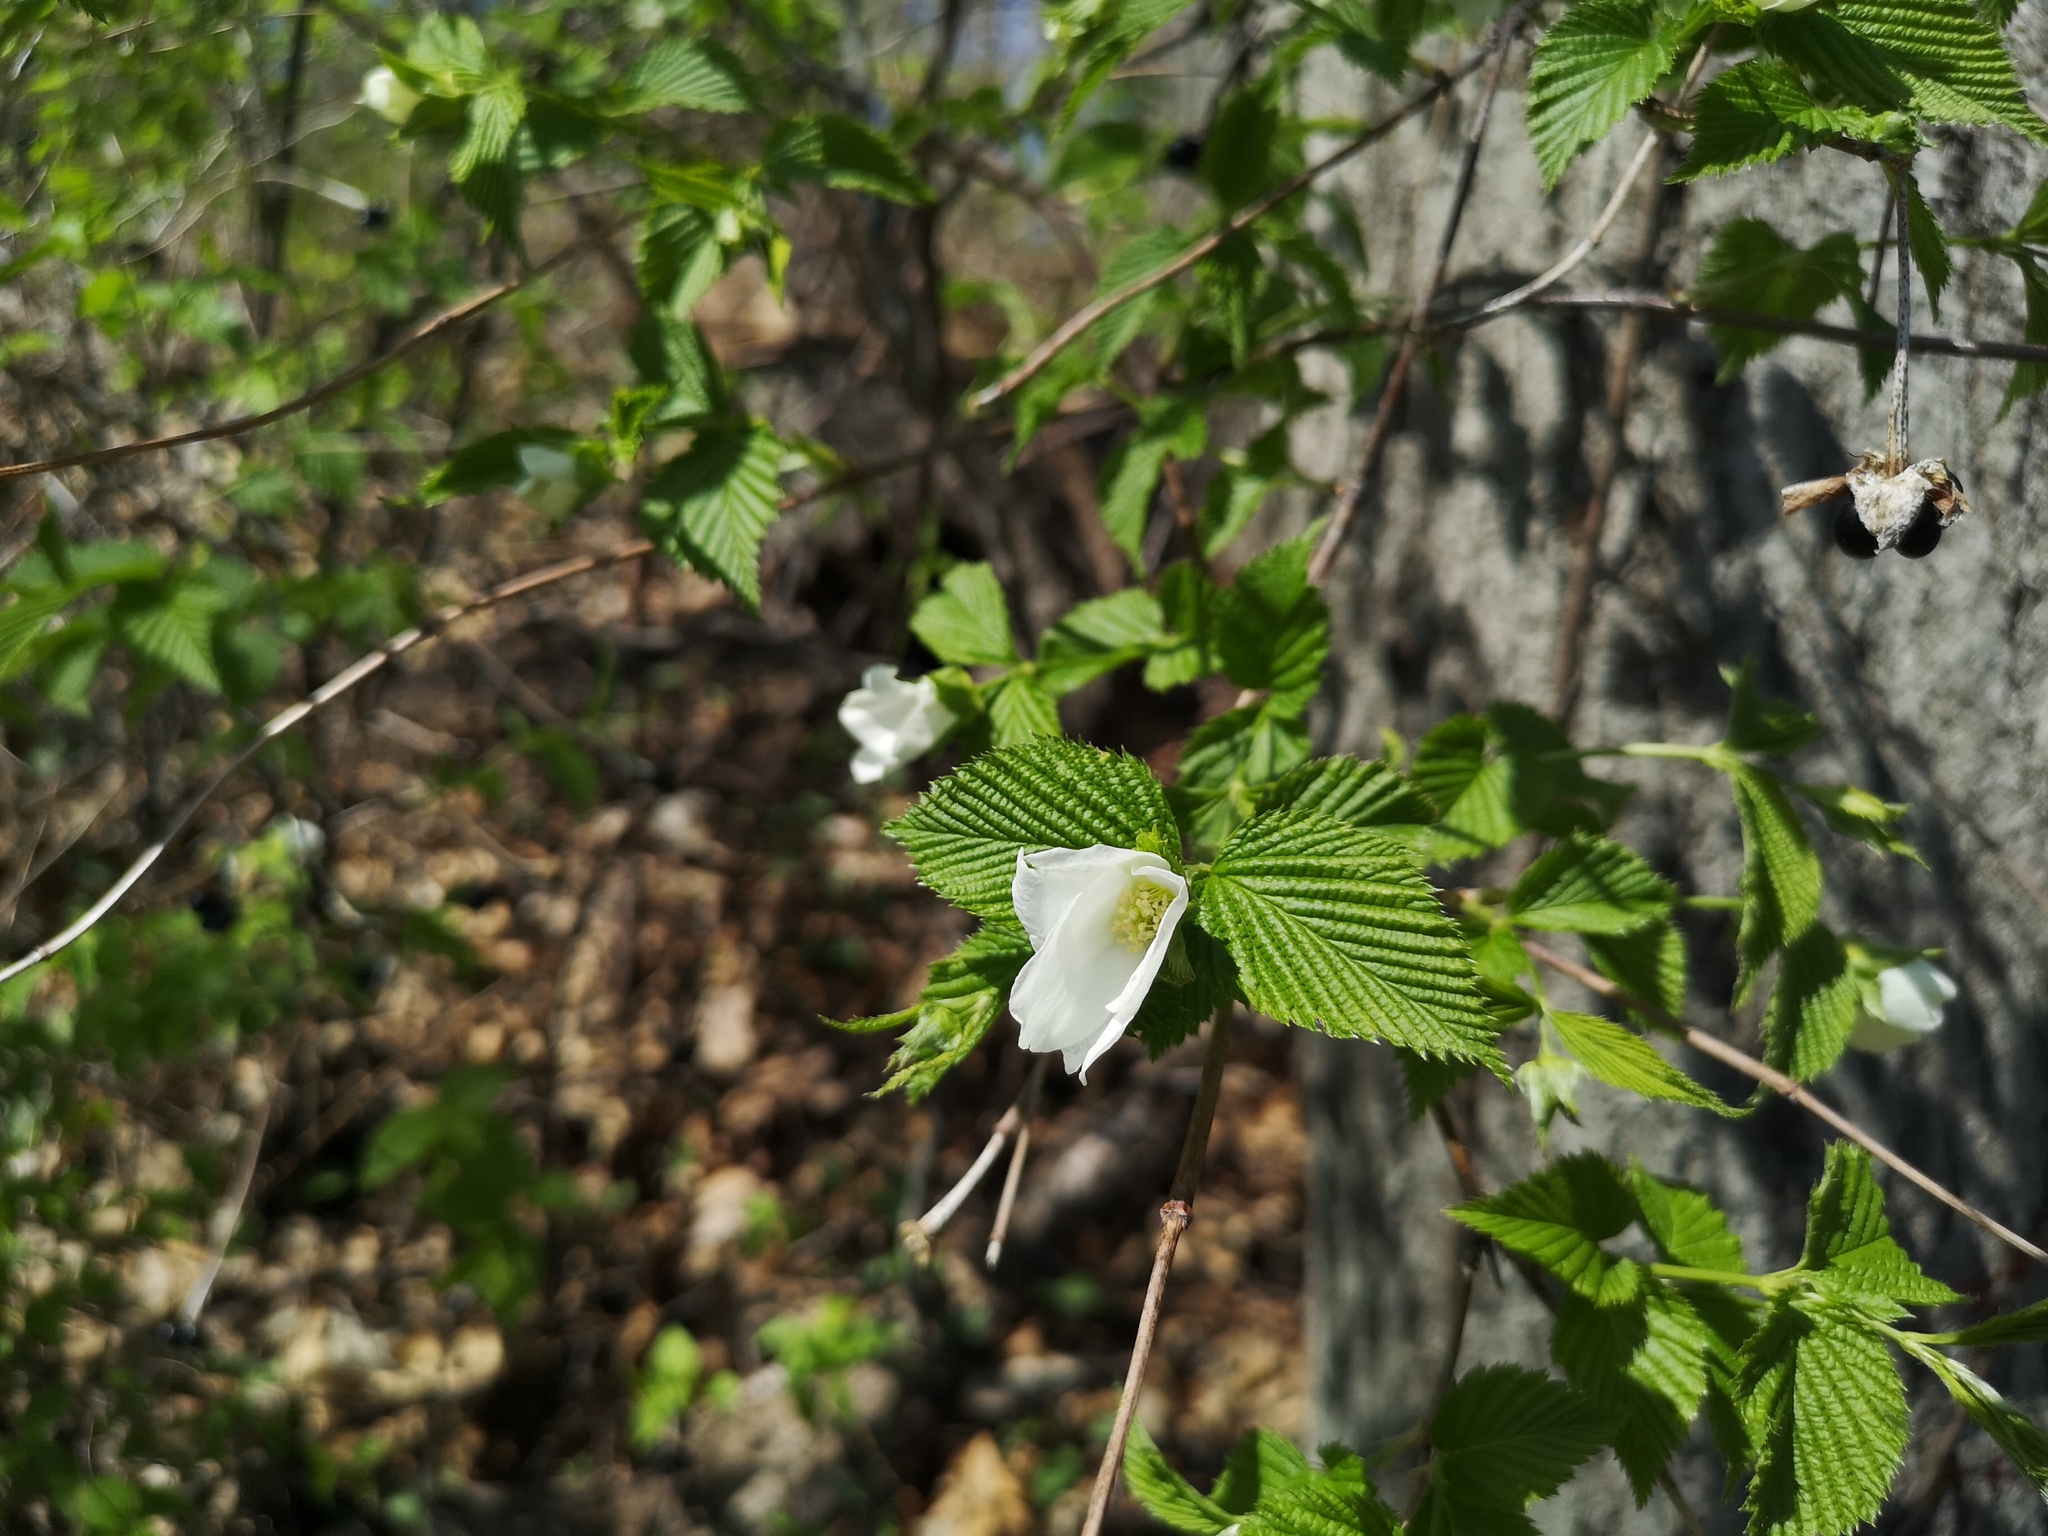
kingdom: Plantae
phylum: Tracheophyta
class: Magnoliopsida
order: Rosales
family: Rosaceae
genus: Rhodotypos
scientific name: Rhodotypos scandens
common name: Jetbead
